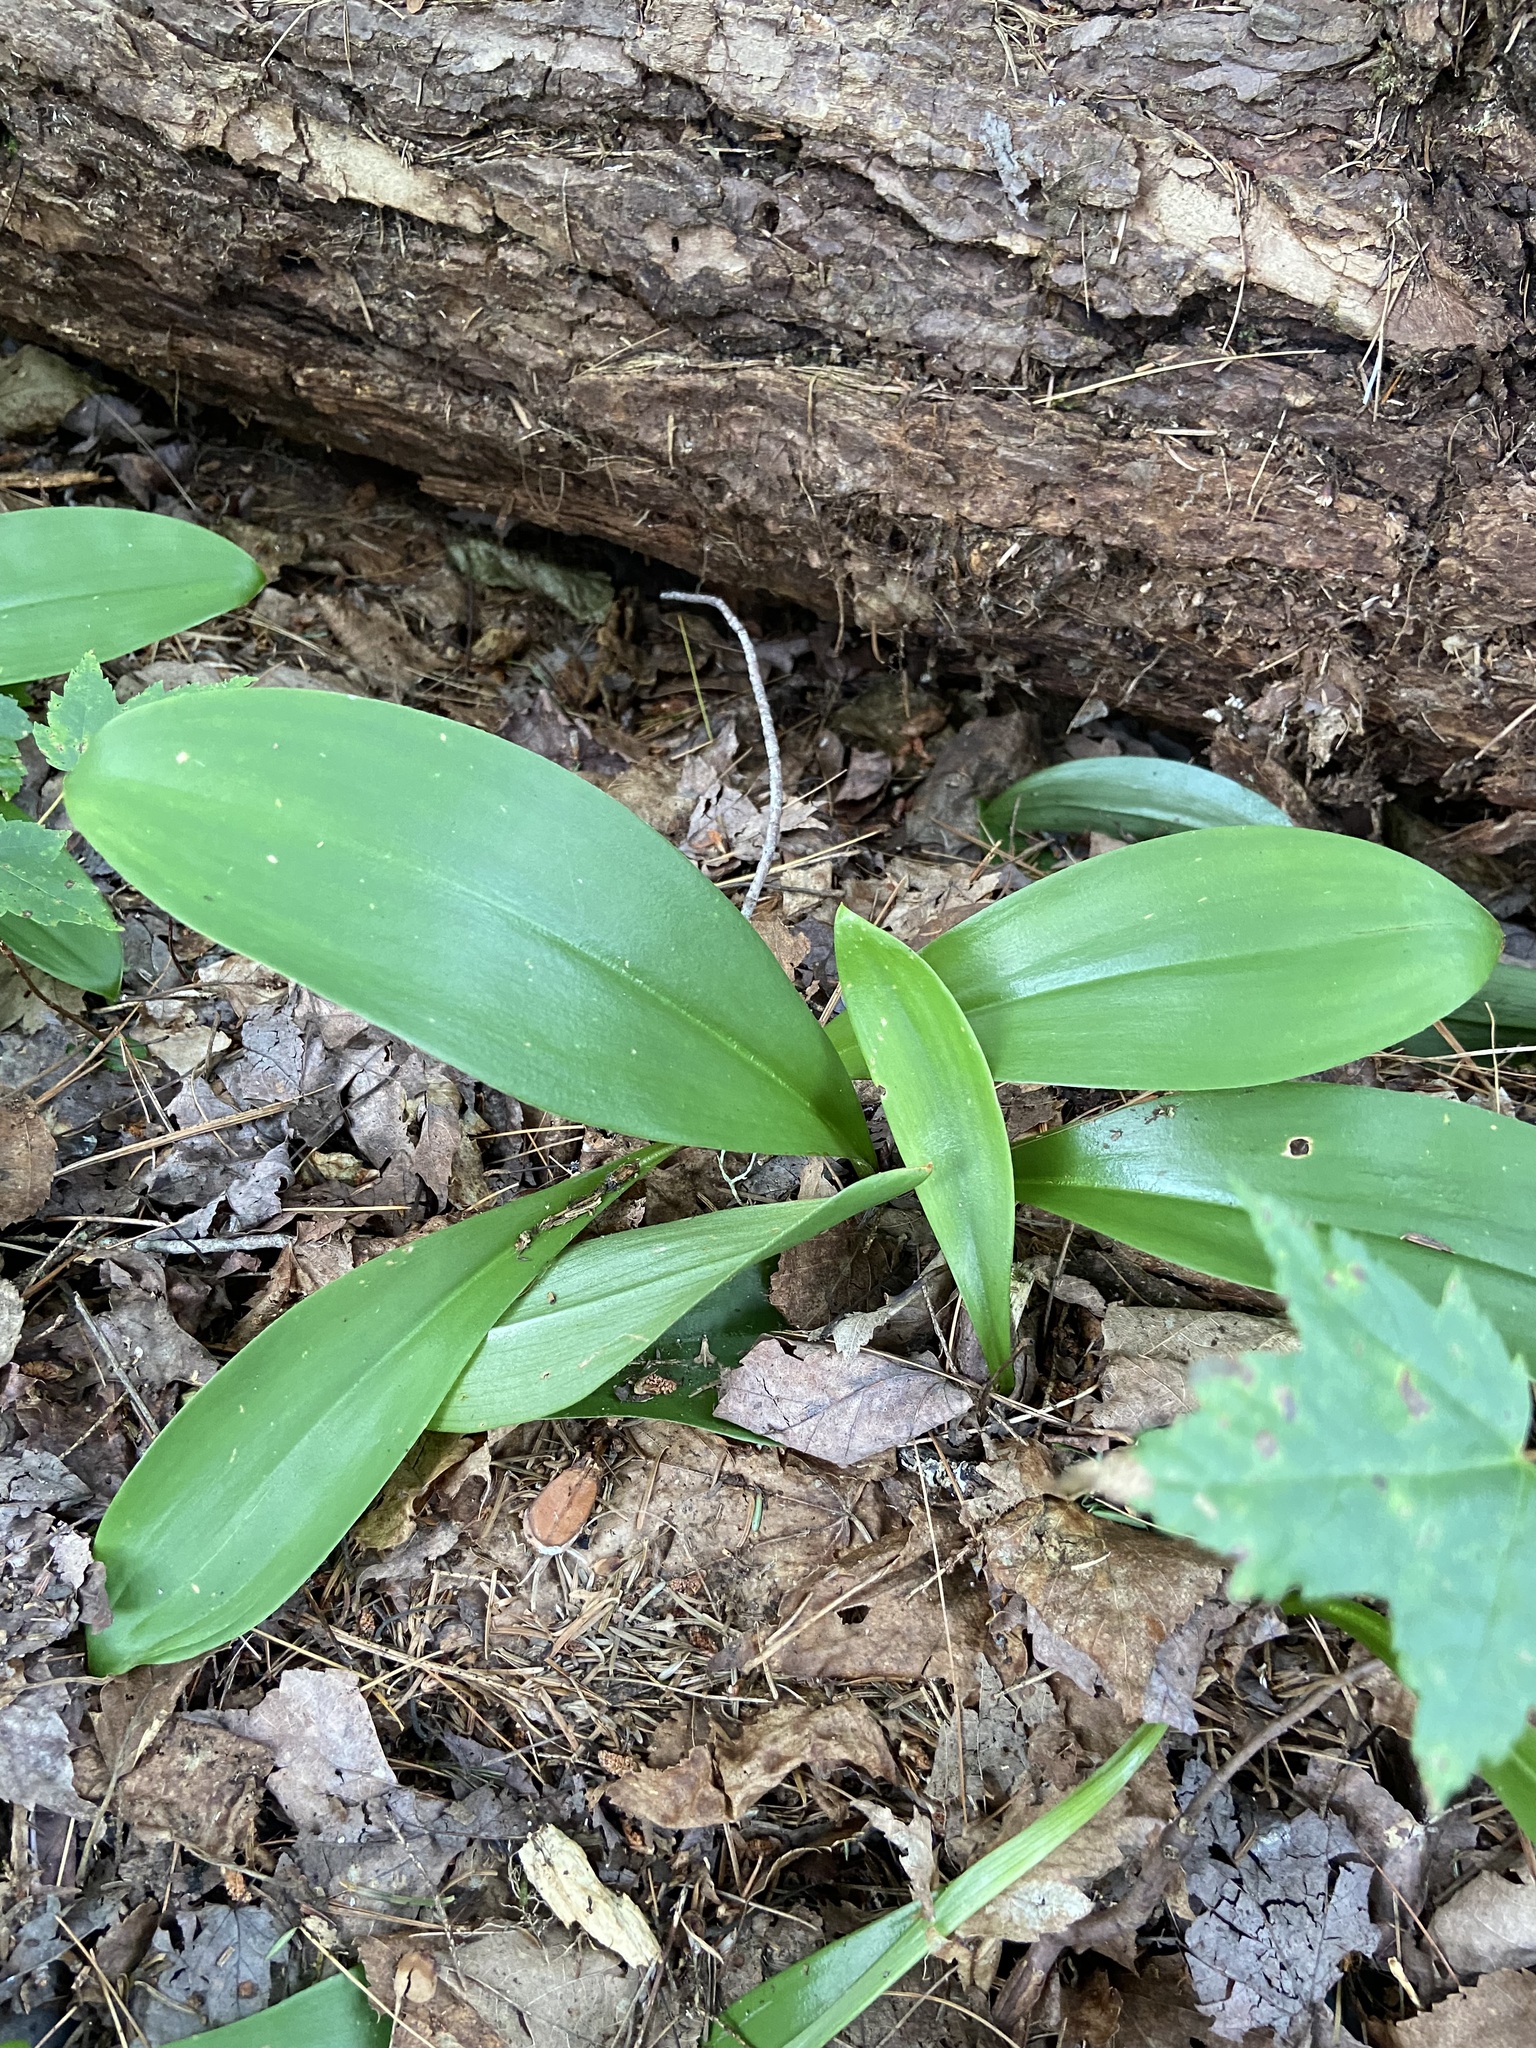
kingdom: Plantae
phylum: Tracheophyta
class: Liliopsida
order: Liliales
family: Liliaceae
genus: Clintonia
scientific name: Clintonia borealis
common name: Yellow clintonia
